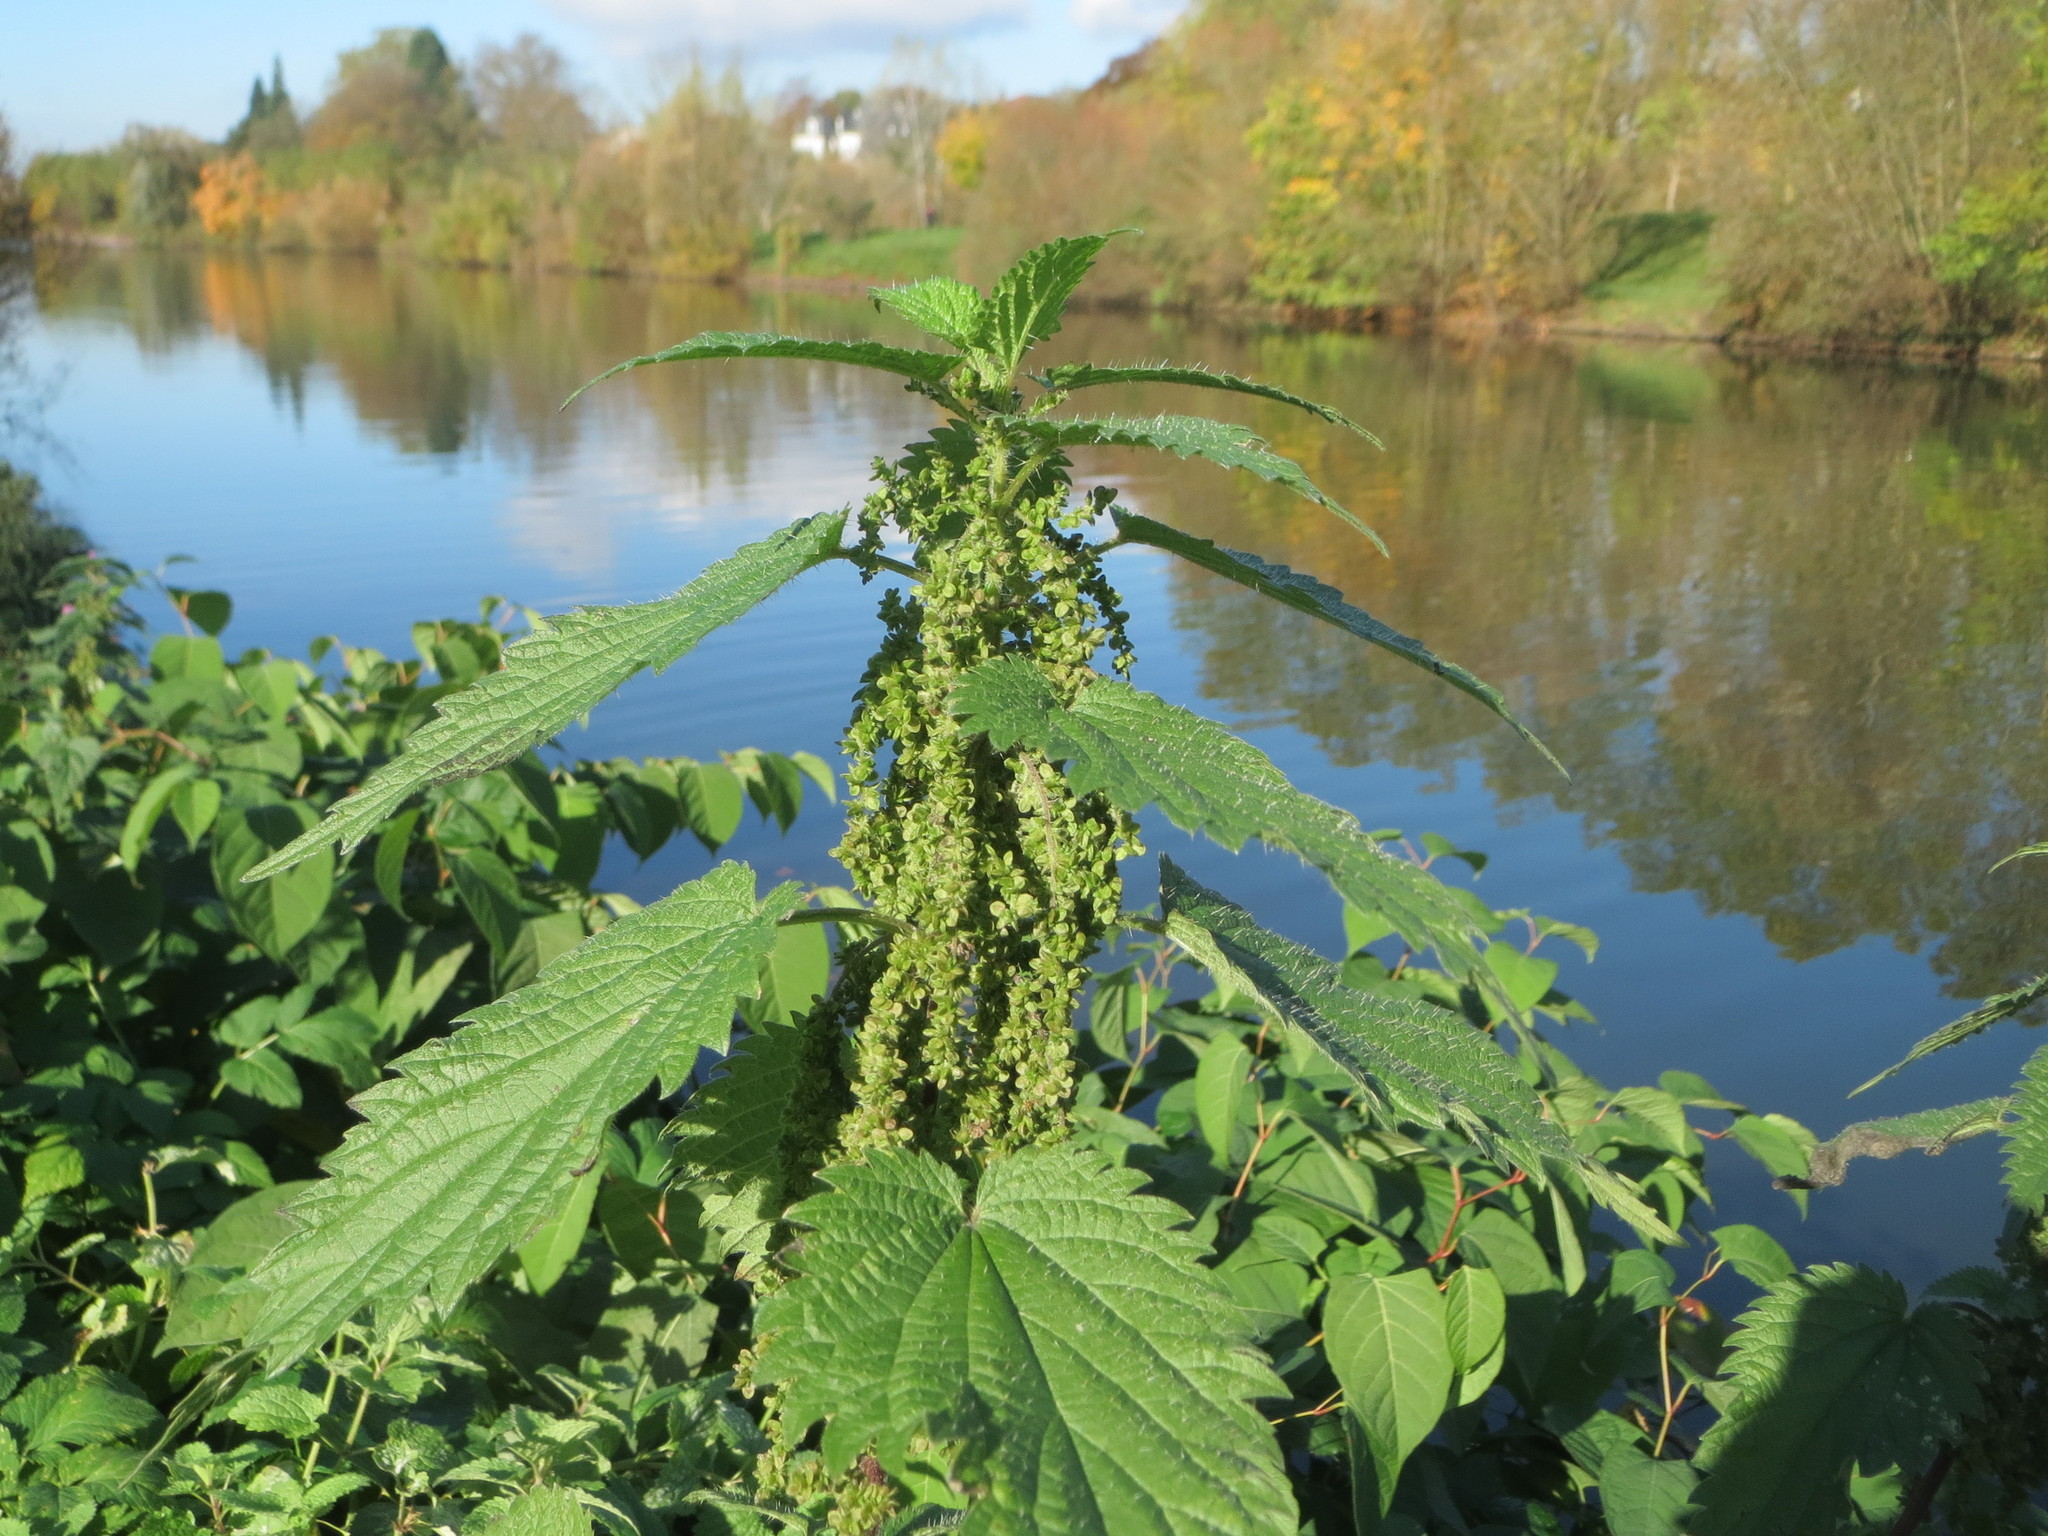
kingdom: Plantae
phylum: Tracheophyta
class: Magnoliopsida
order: Rosales
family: Urticaceae
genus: Urtica
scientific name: Urtica dioica
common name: Common nettle
